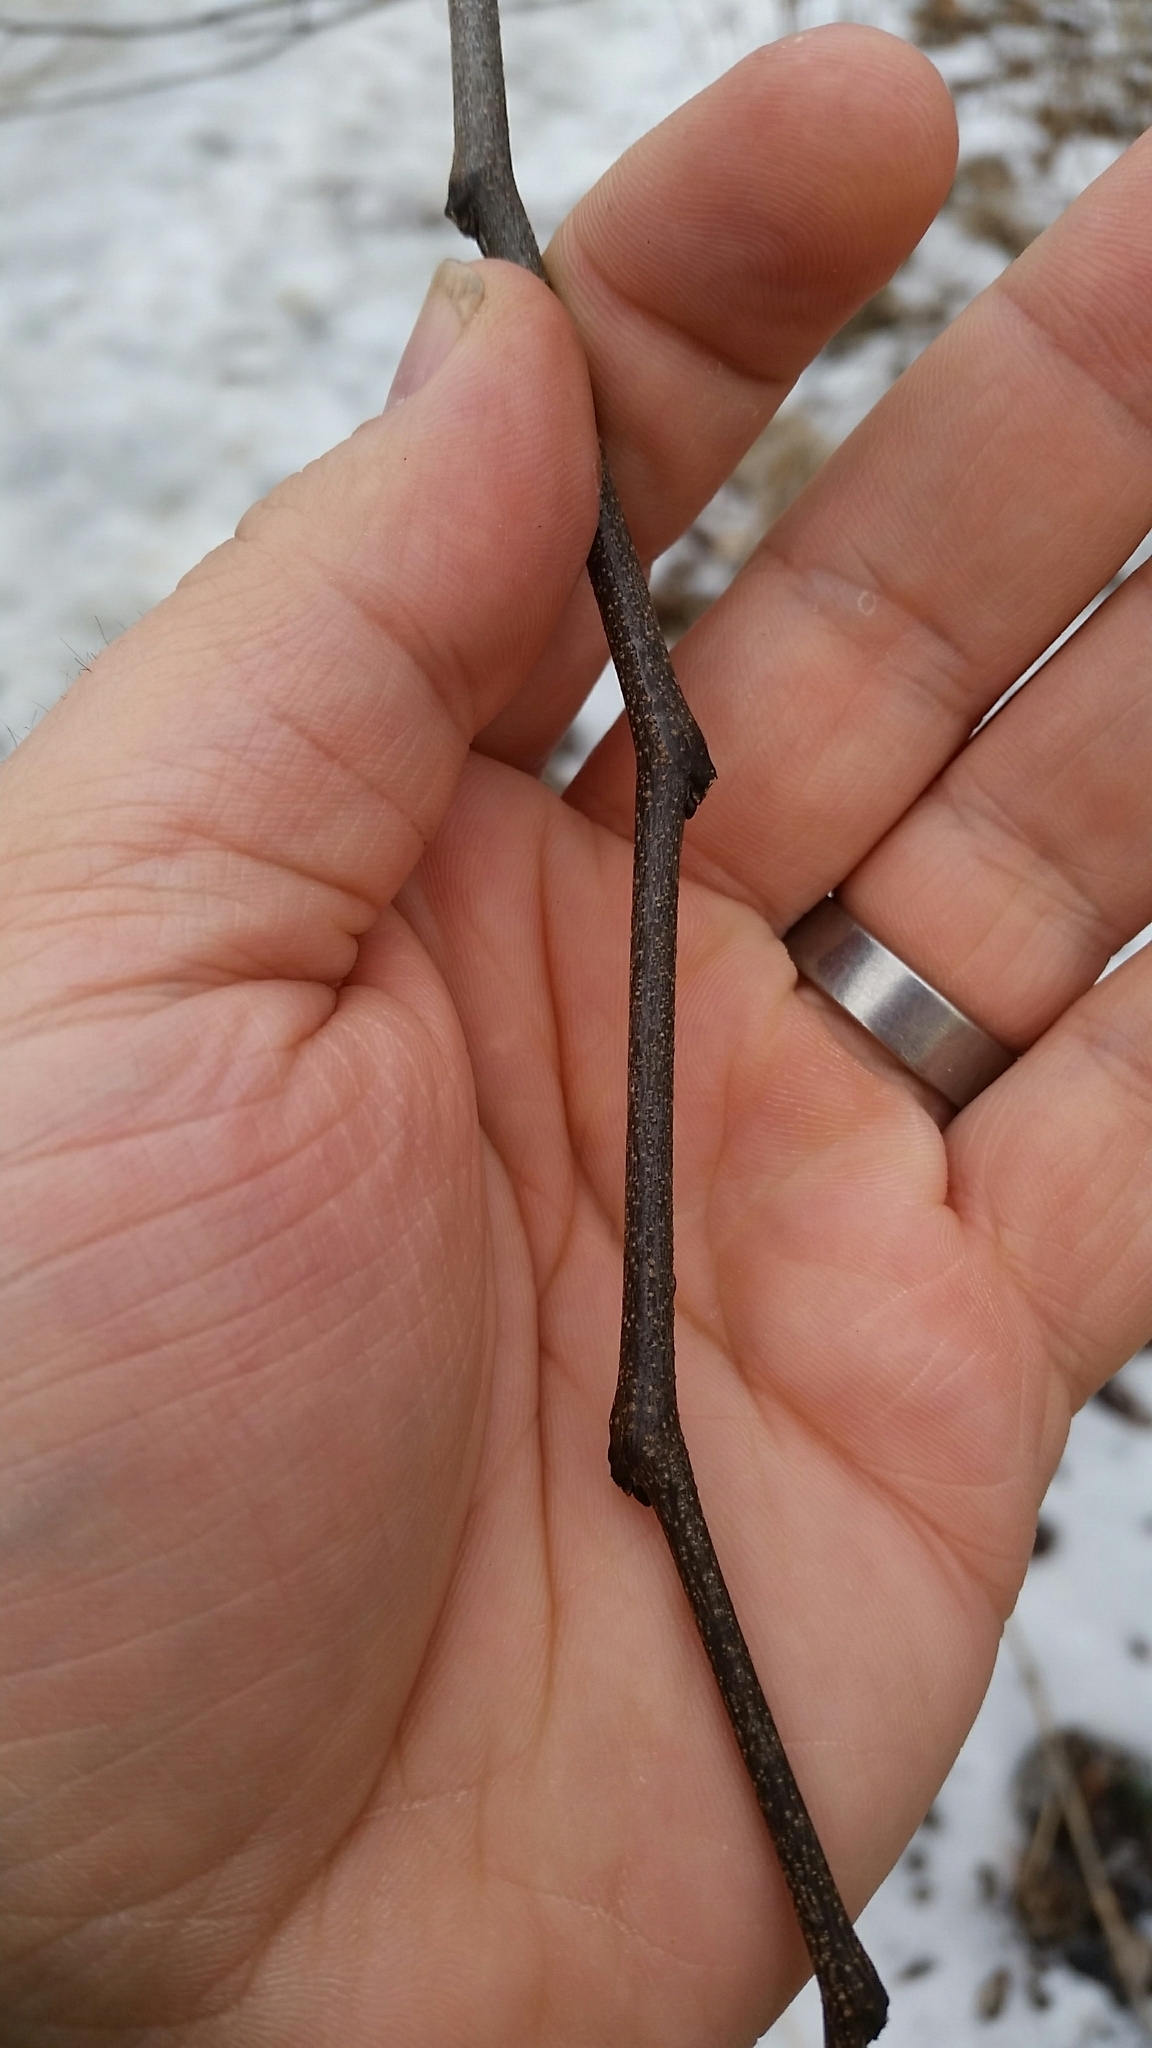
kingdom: Plantae
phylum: Tracheophyta
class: Magnoliopsida
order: Fabales
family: Fabaceae
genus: Cercis
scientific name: Cercis canadensis
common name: Eastern redbud
